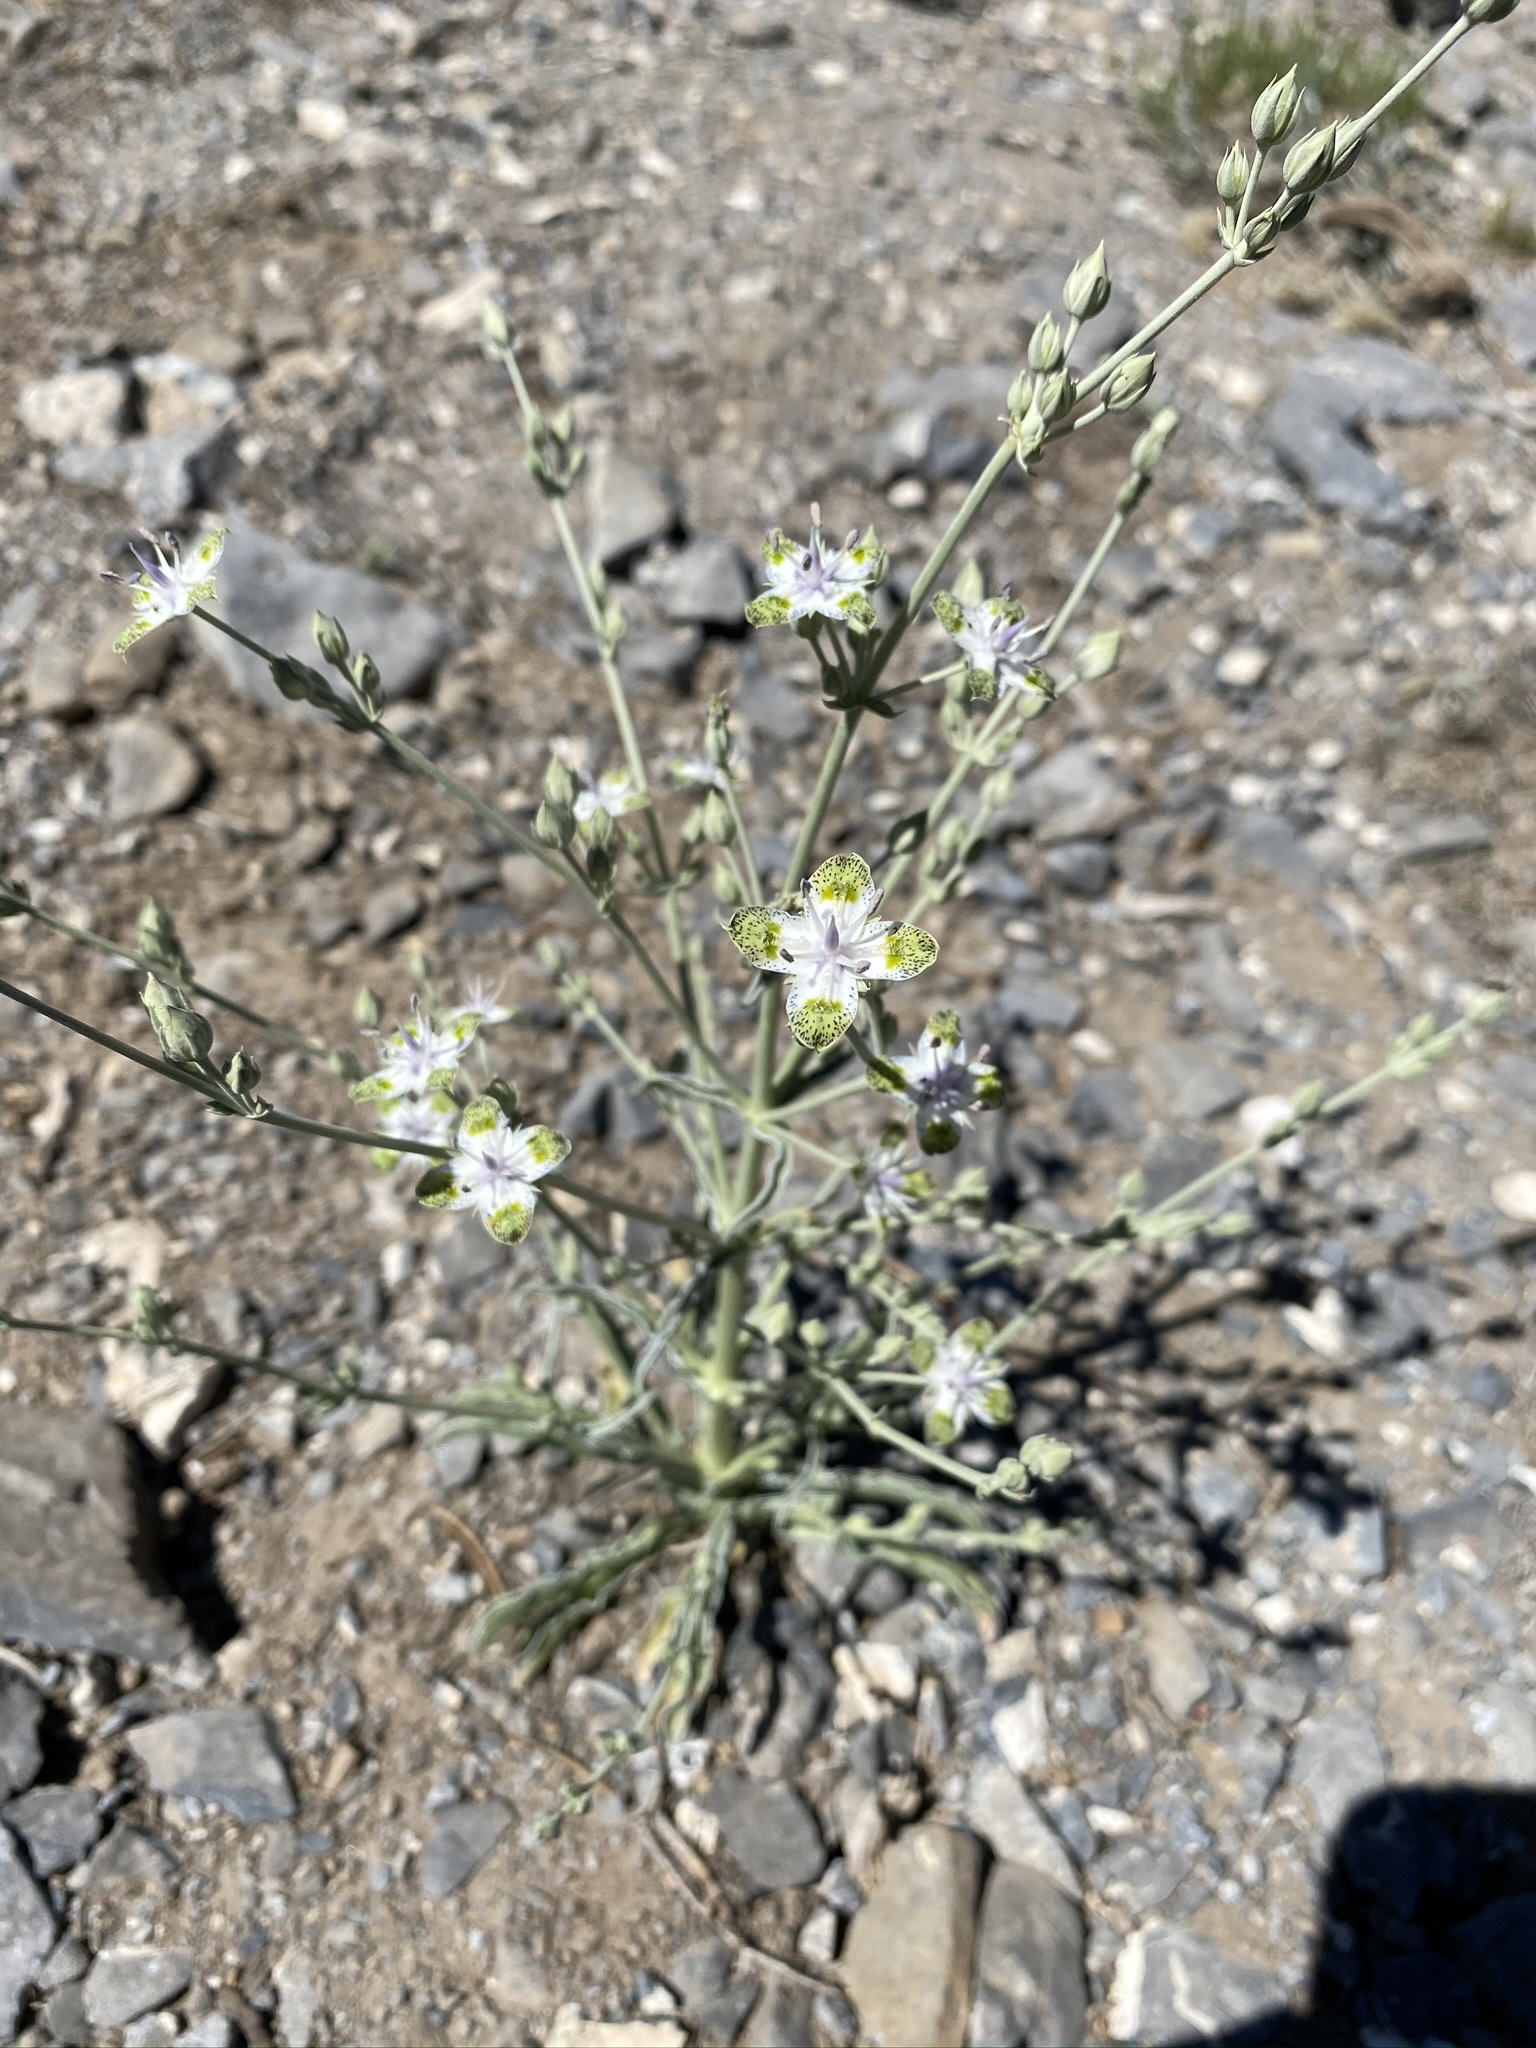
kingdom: Plantae
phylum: Tracheophyta
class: Magnoliopsida
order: Gentianales
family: Gentianaceae
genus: Frasera
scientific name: Frasera albomarginata
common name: Desert frasera
